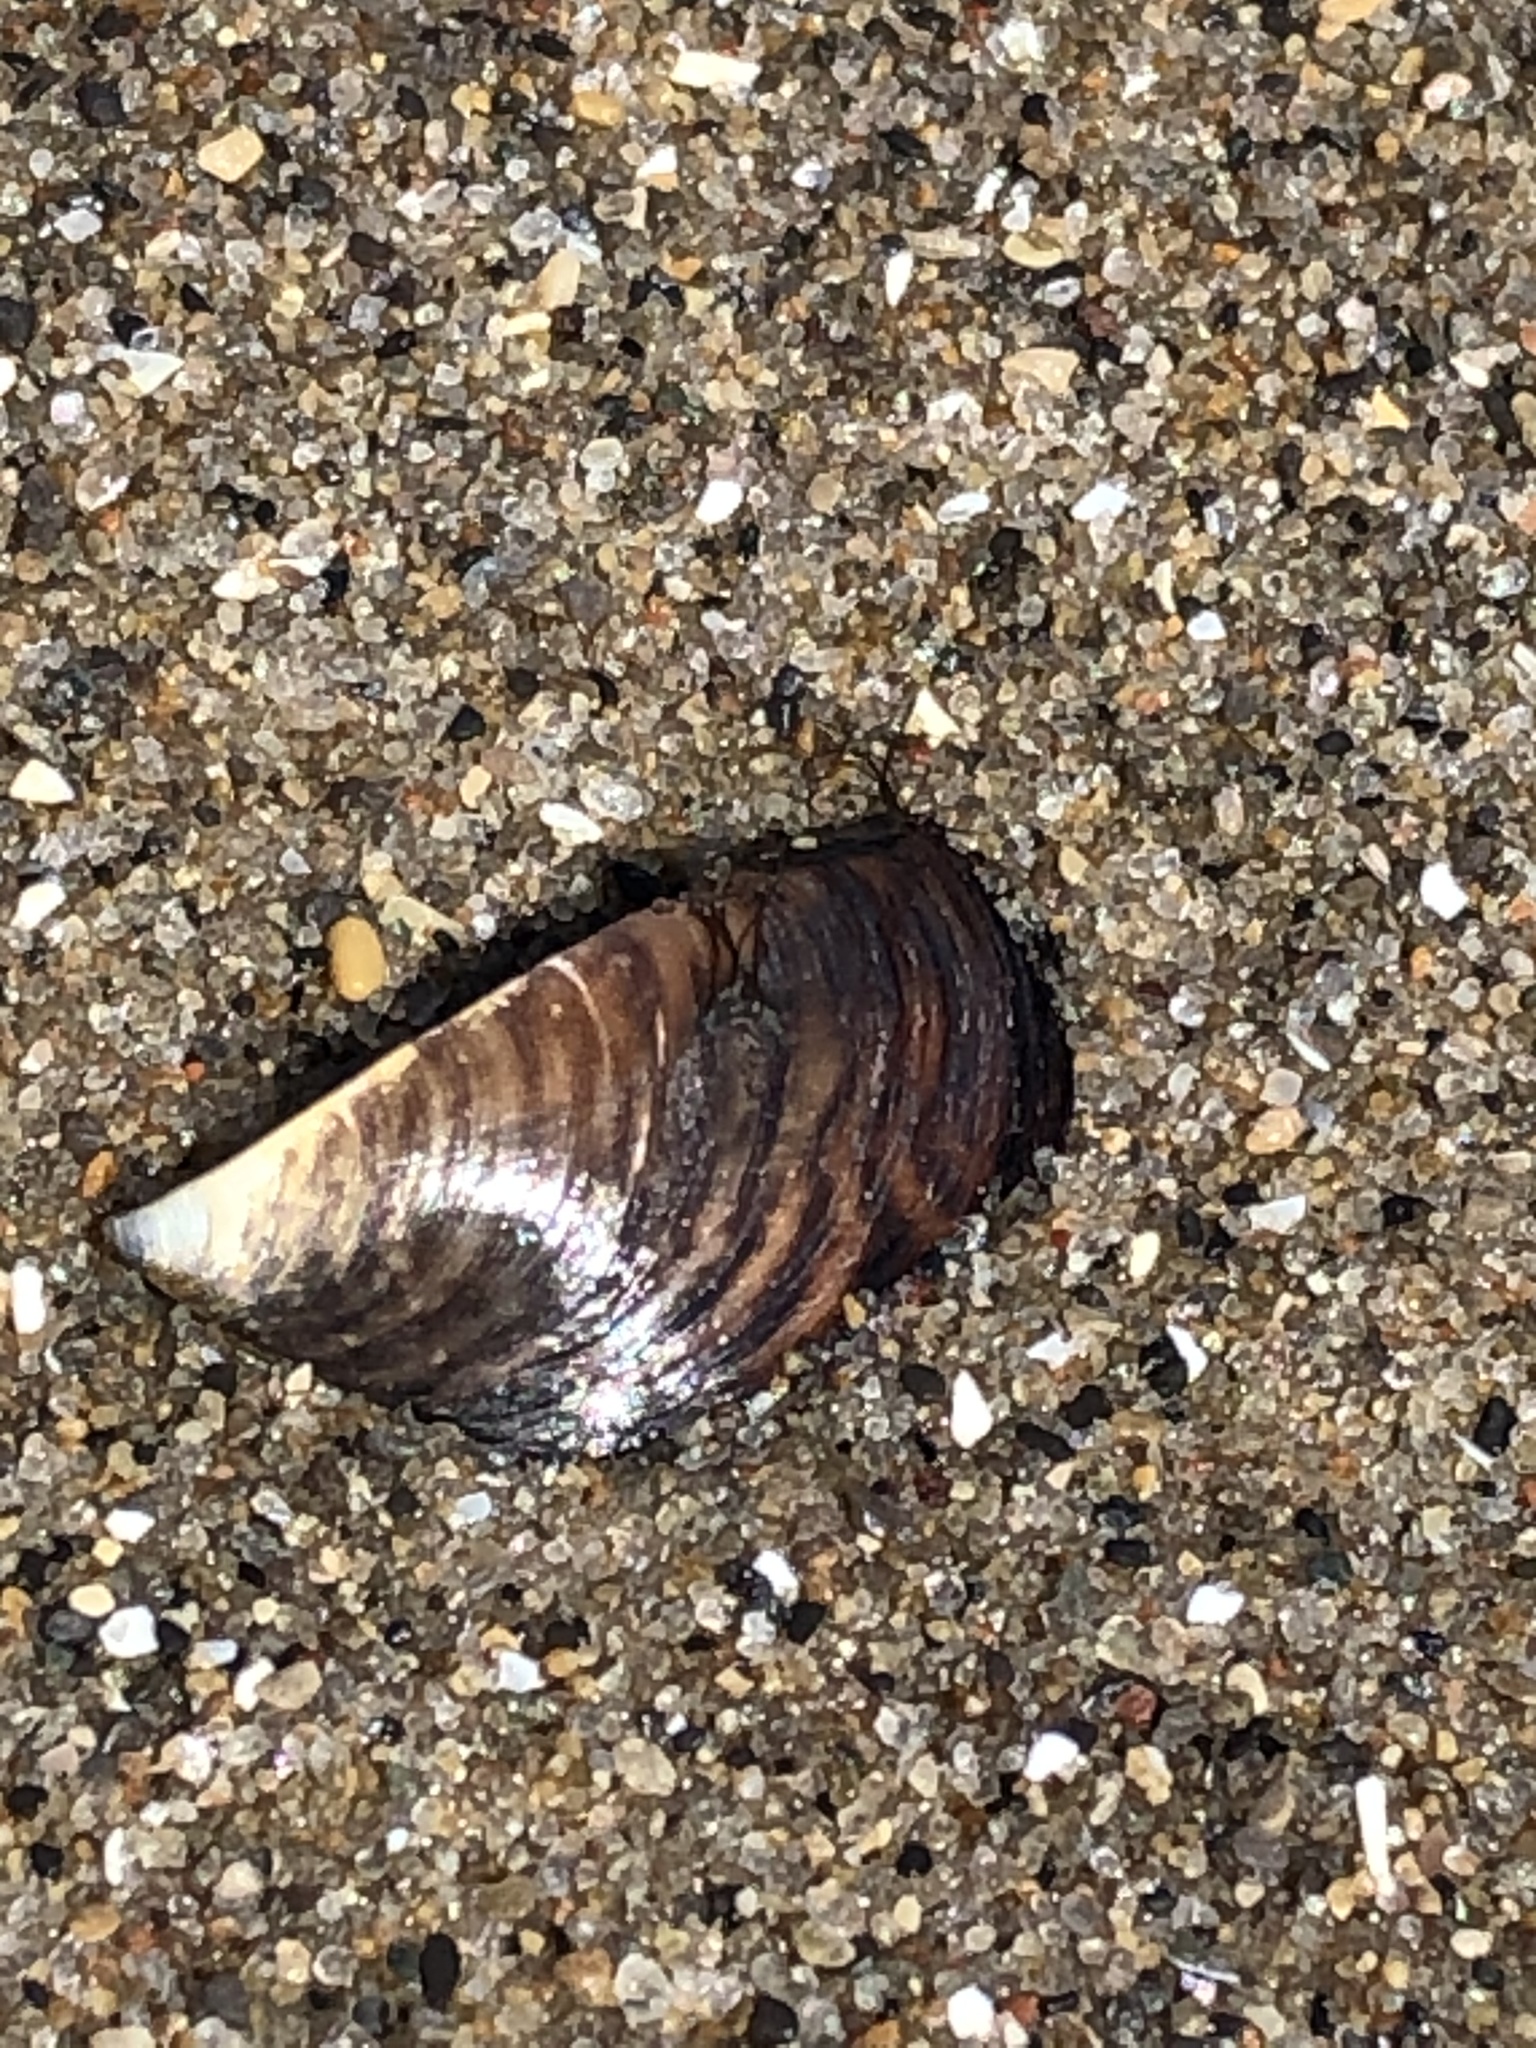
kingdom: Animalia
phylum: Mollusca
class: Bivalvia
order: Myida
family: Dreissenidae
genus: Dreissena
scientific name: Dreissena polymorpha
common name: Zebra mussel
